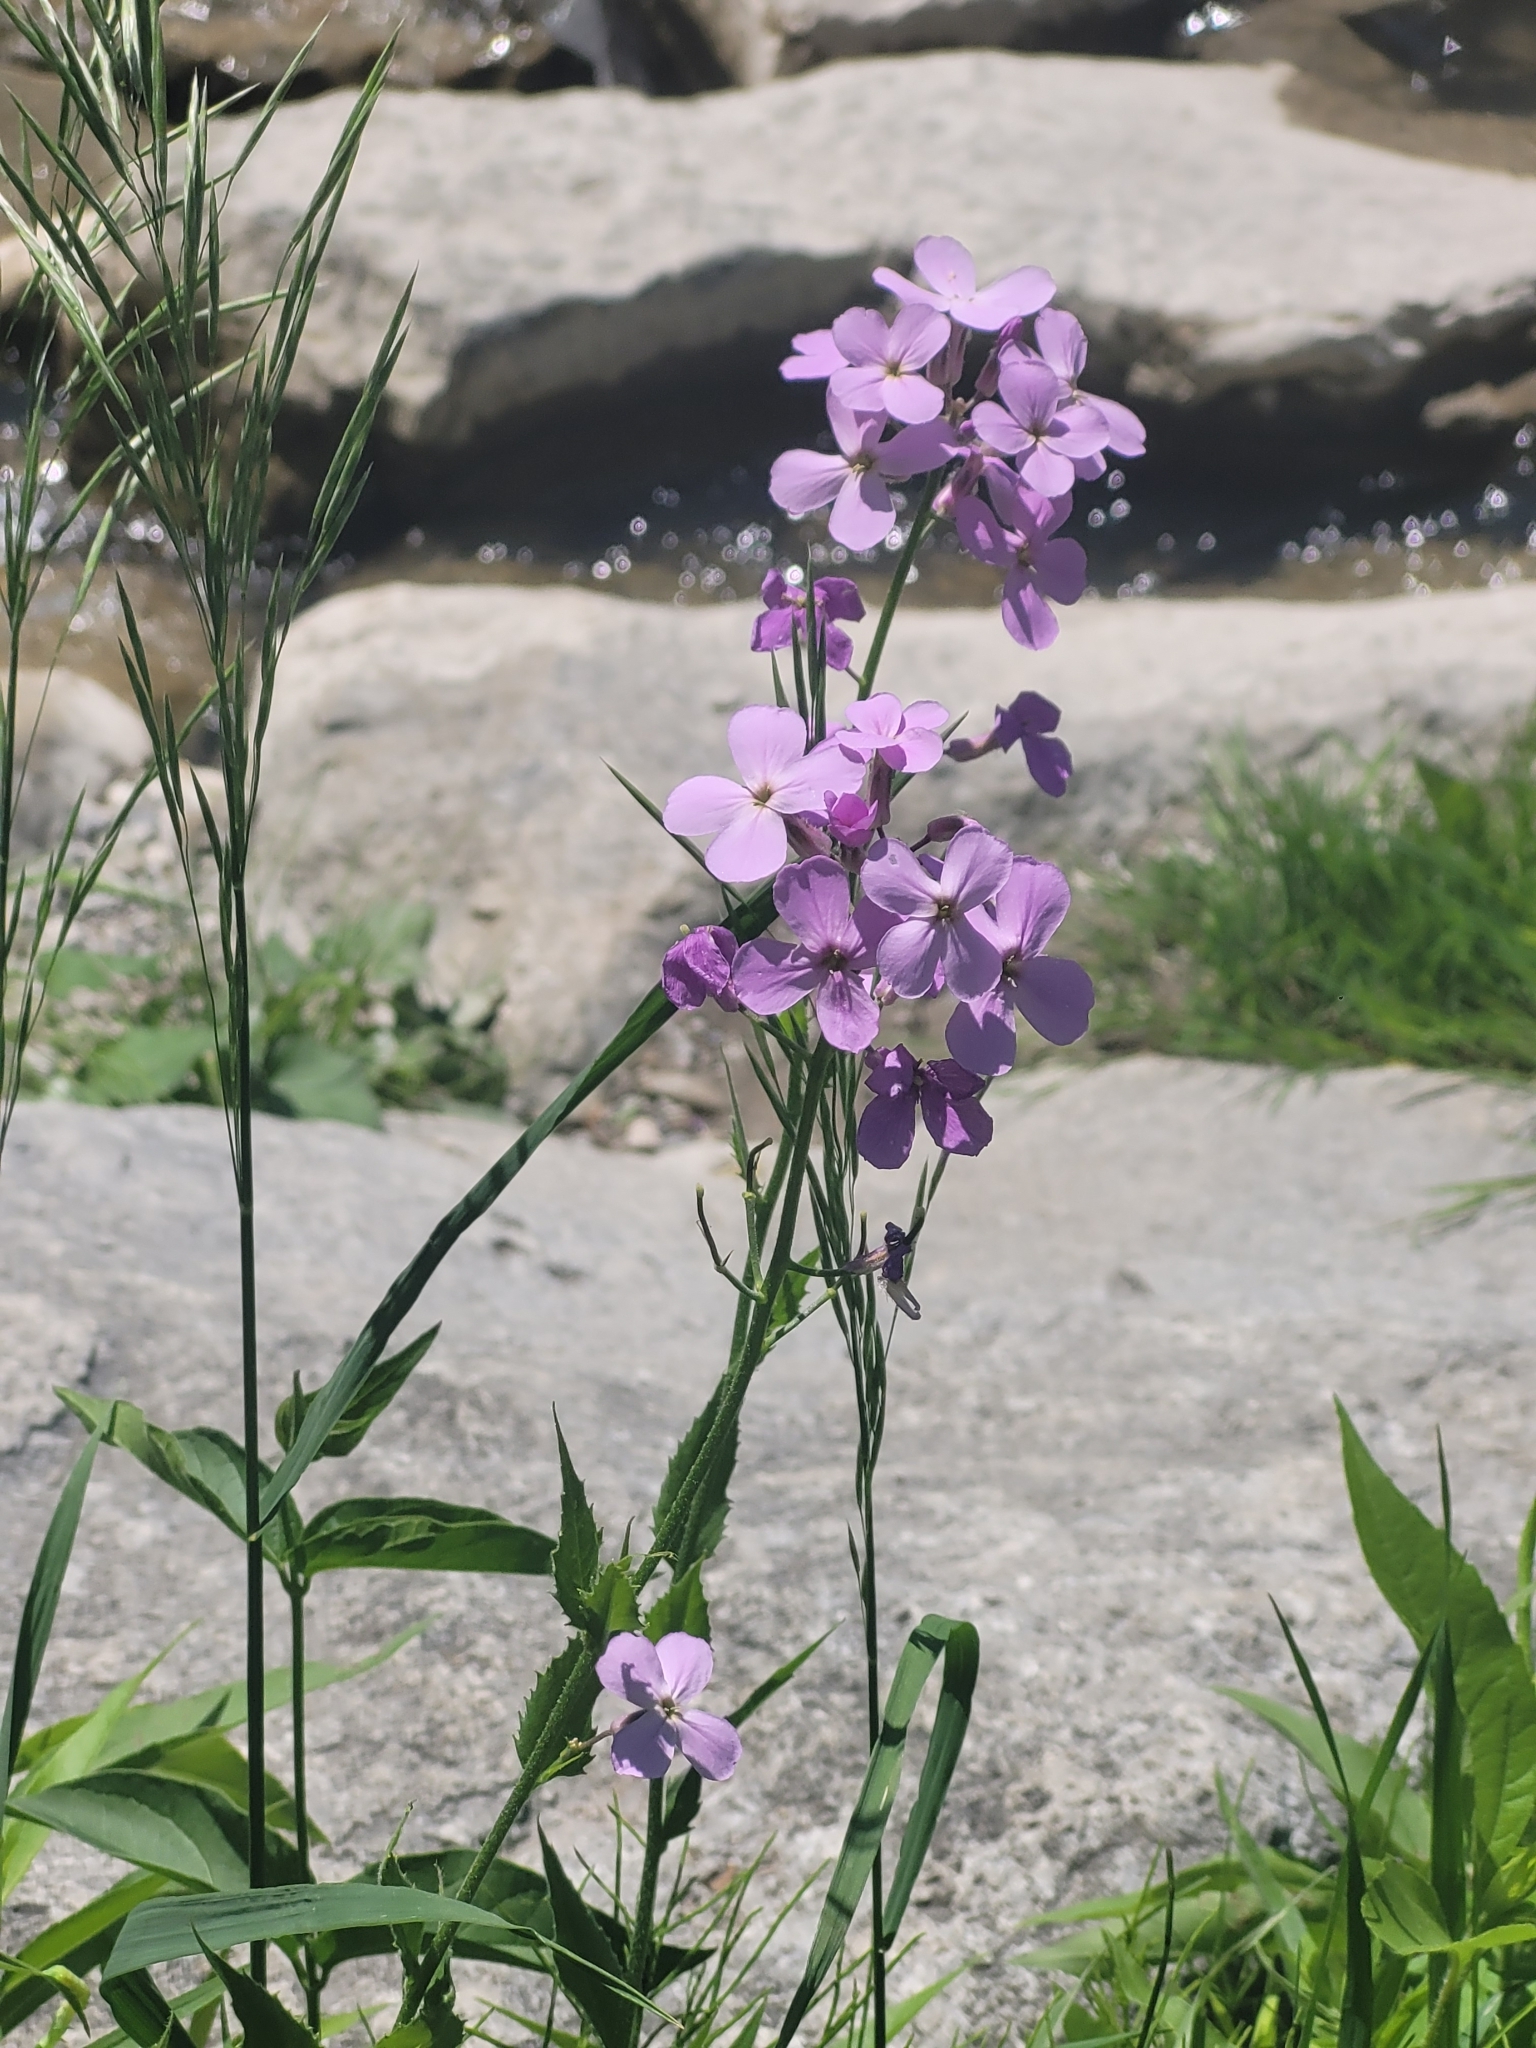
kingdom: Plantae
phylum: Tracheophyta
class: Magnoliopsida
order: Brassicales
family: Brassicaceae
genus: Hesperis
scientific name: Hesperis matronalis
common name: Dame's-violet
